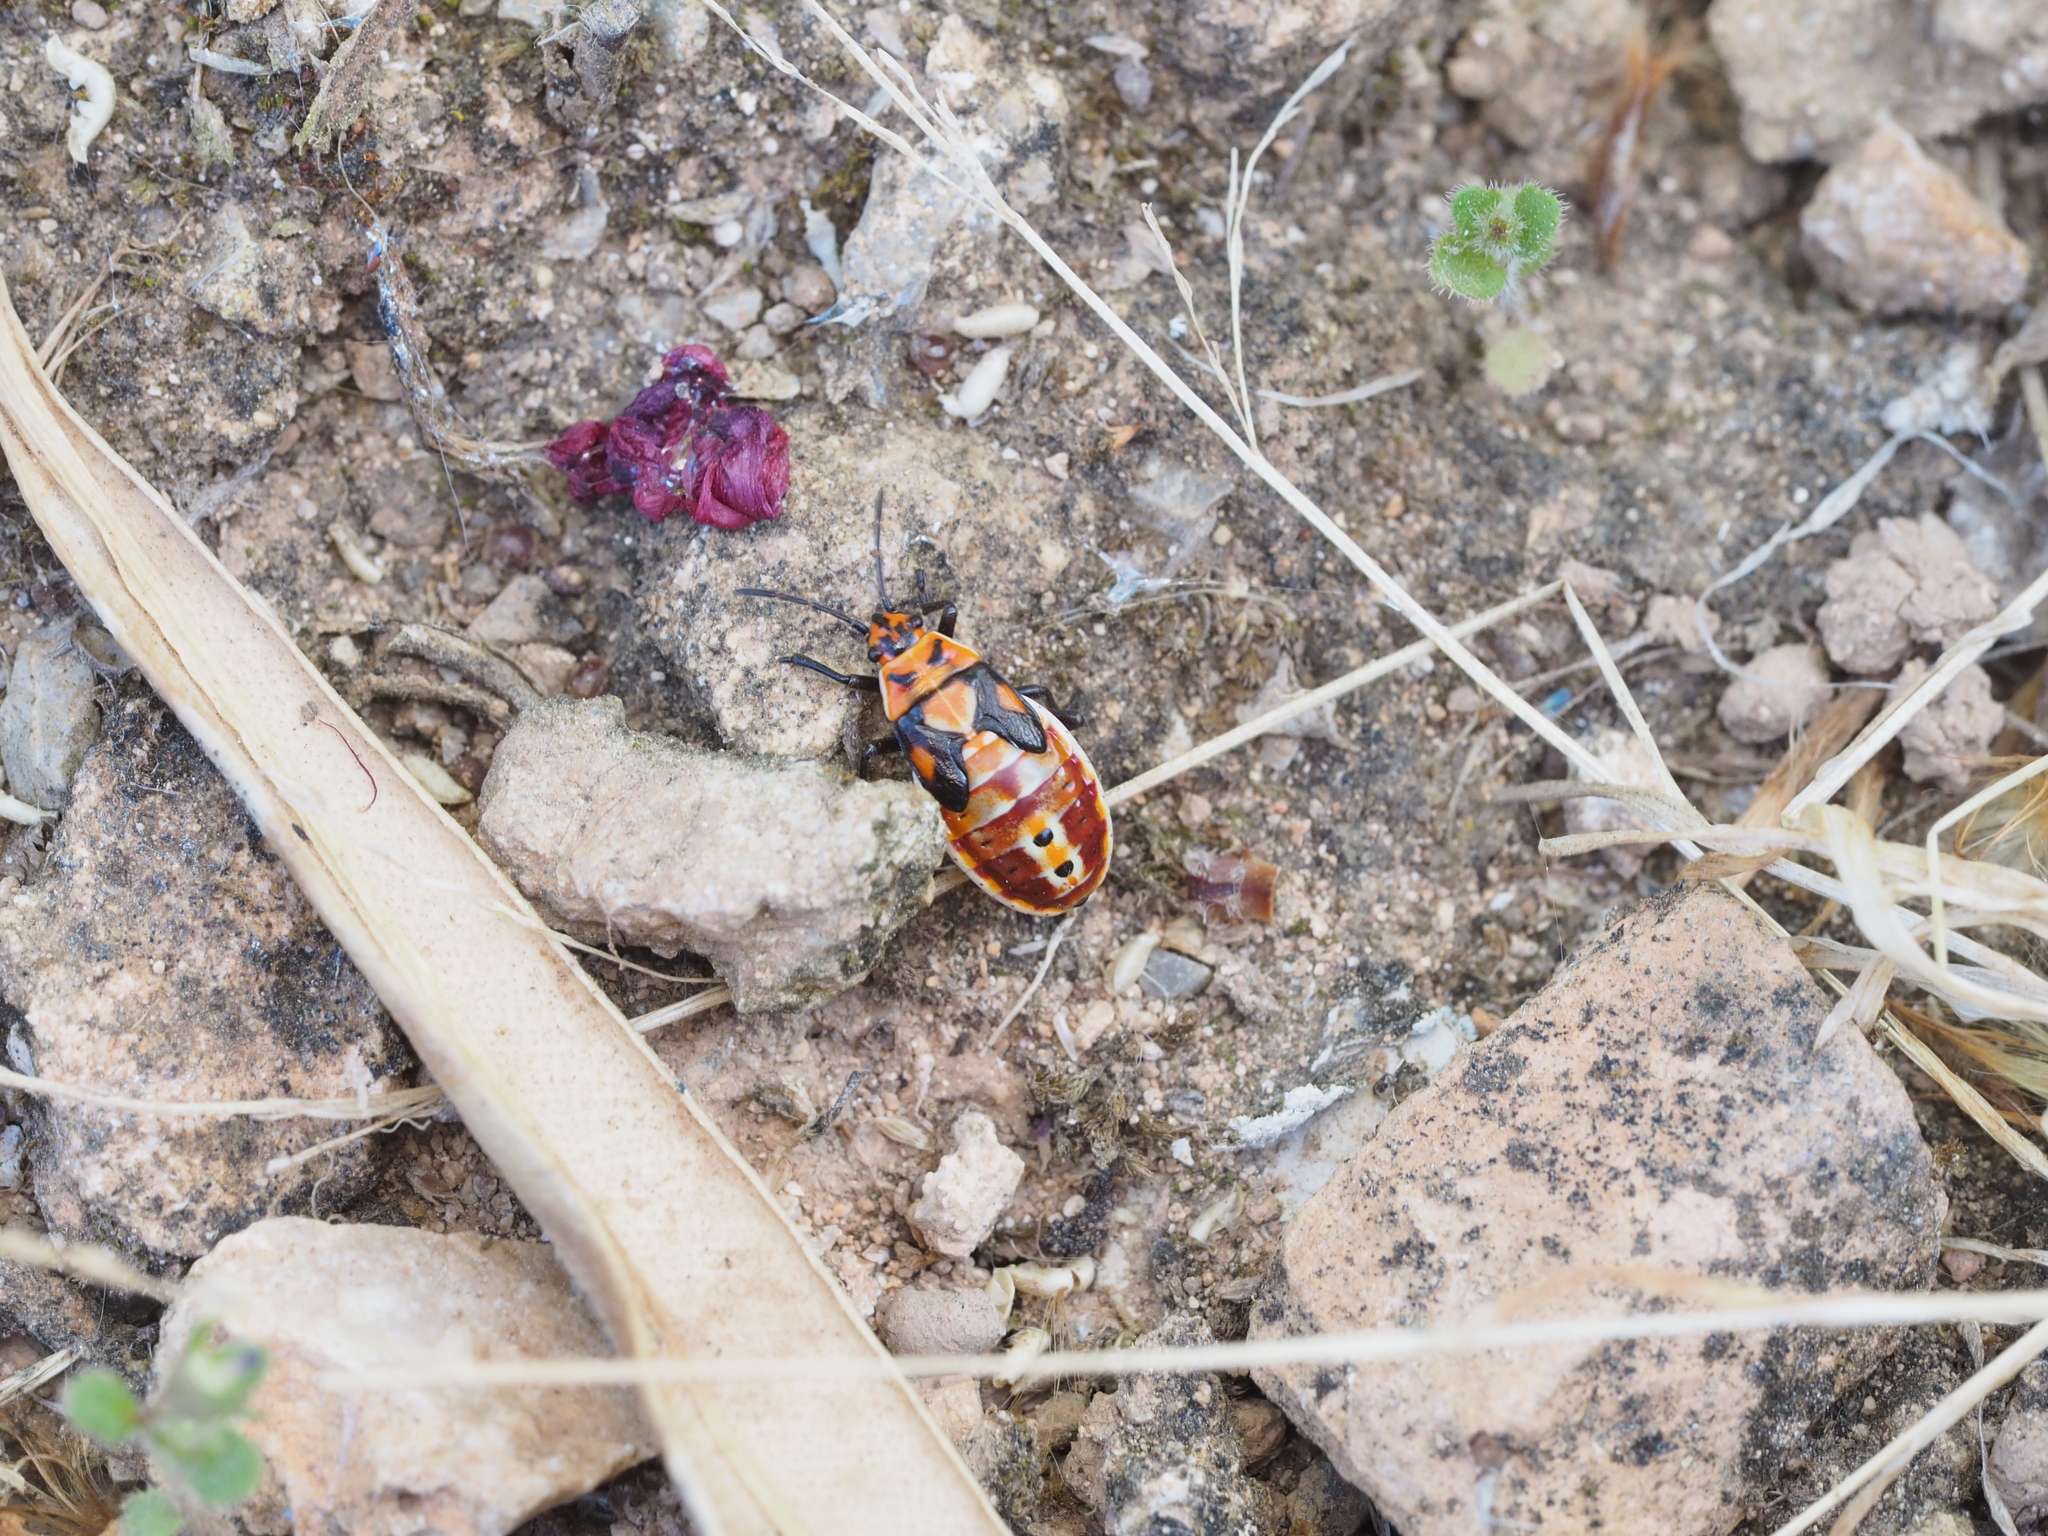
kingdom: Animalia
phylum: Arthropoda
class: Insecta
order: Hemiptera
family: Lygaeidae
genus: Spilostethus
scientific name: Spilostethus pandurus
